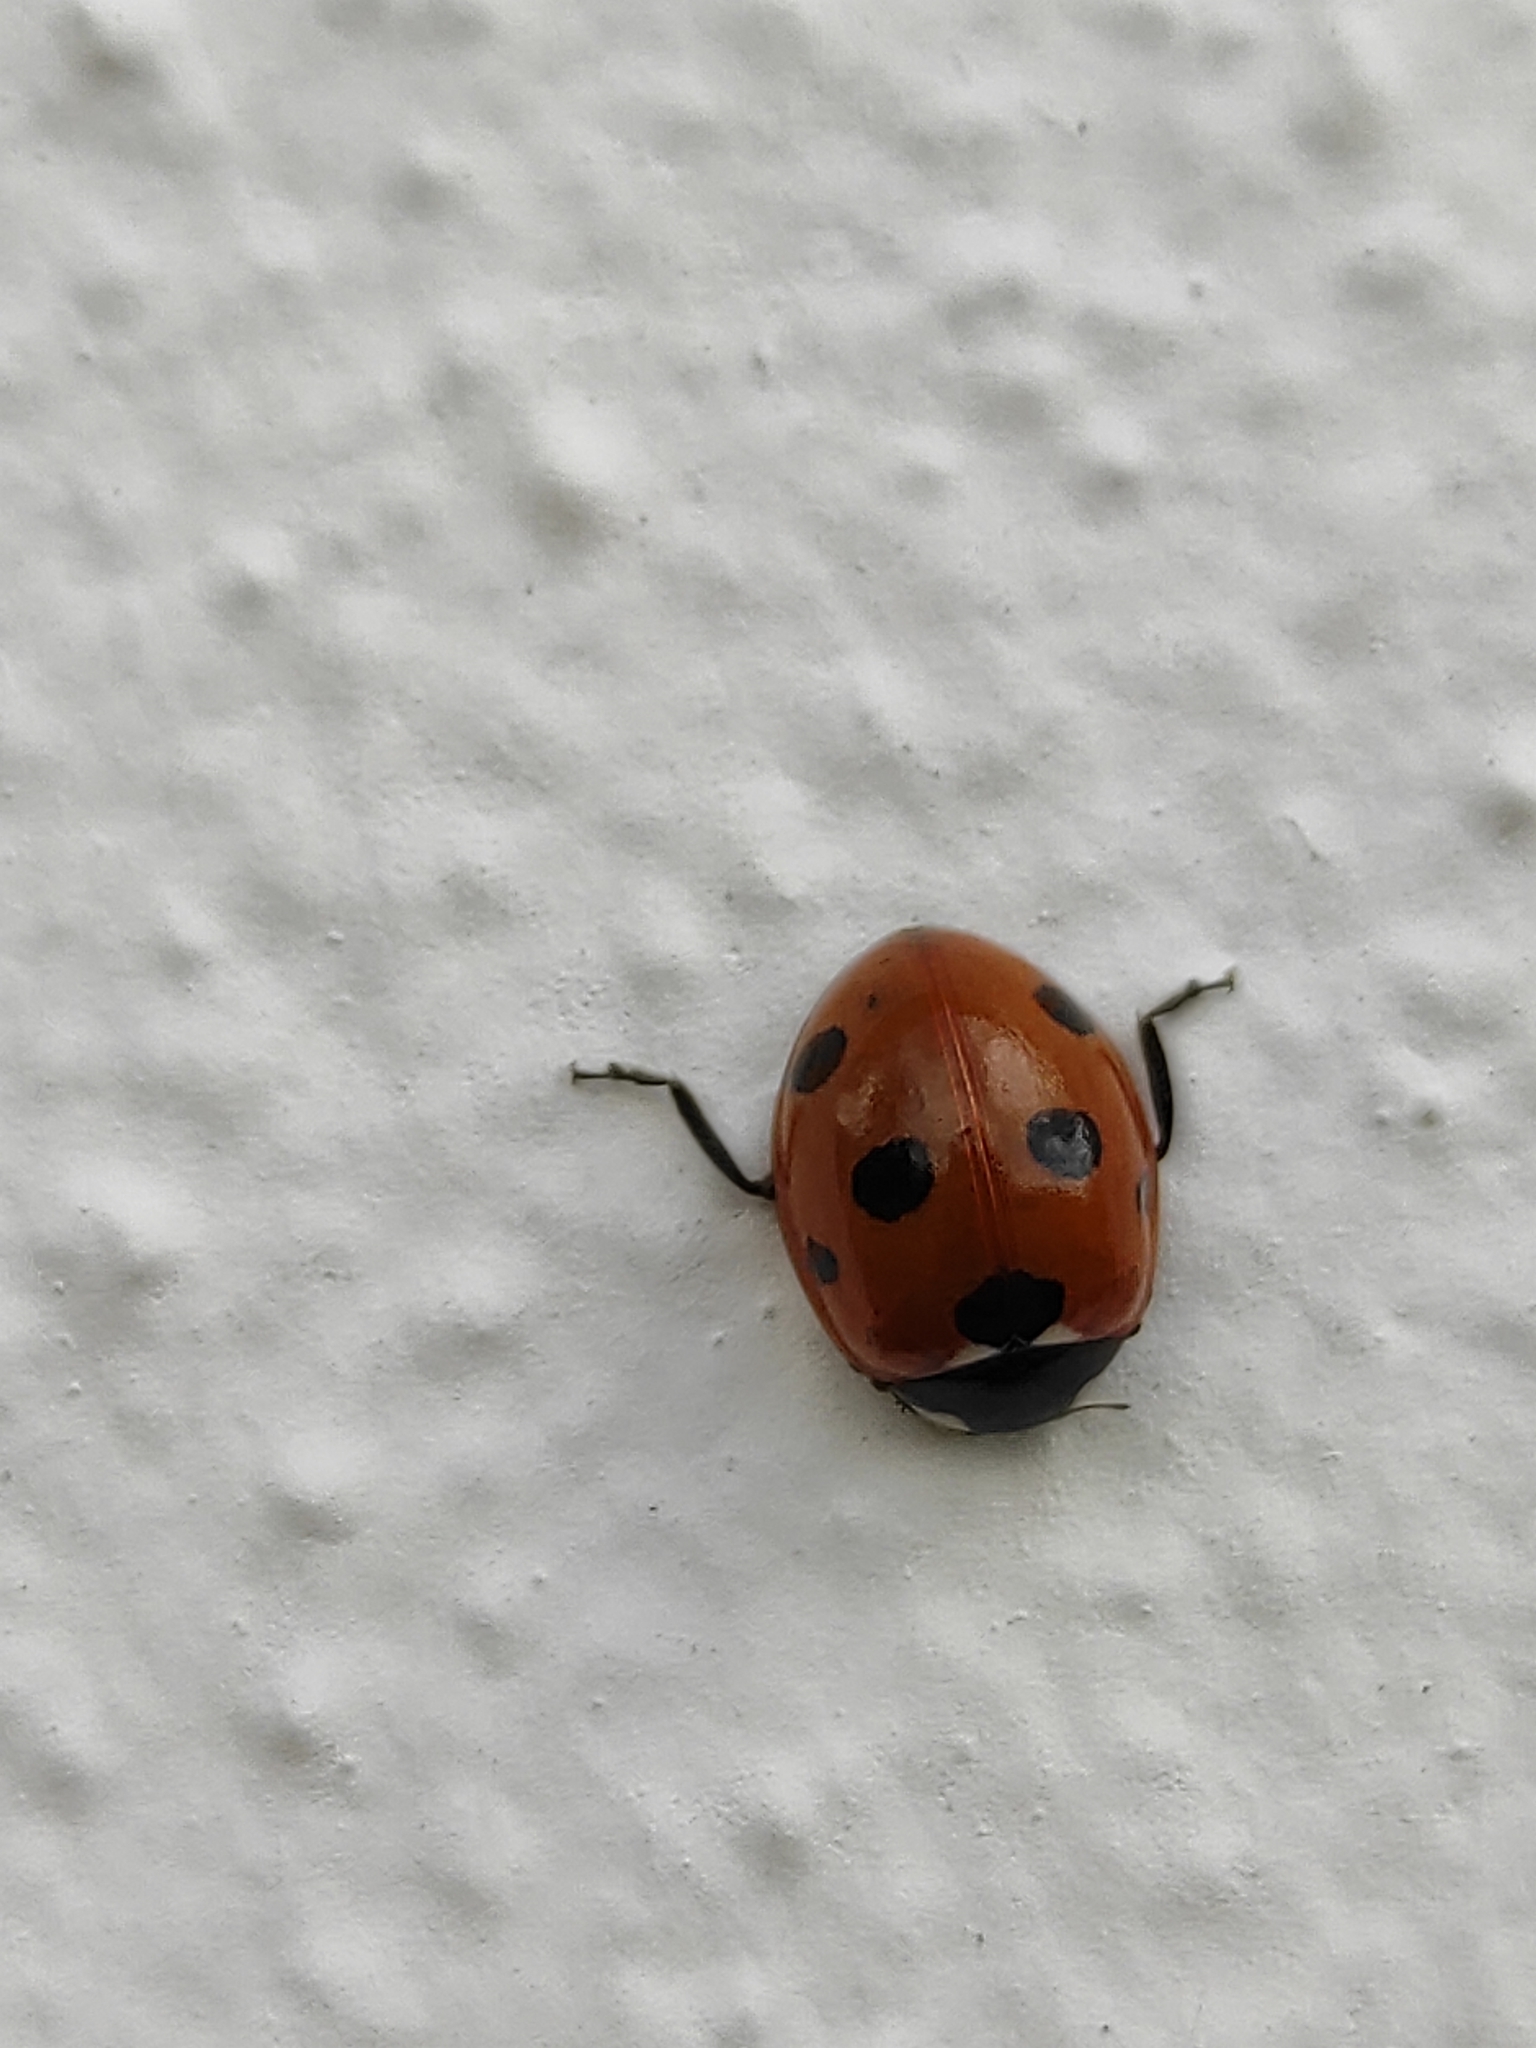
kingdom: Animalia
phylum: Arthropoda
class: Insecta
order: Coleoptera
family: Coccinellidae
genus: Coccinella
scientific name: Coccinella septempunctata
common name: Sevenspotted lady beetle
